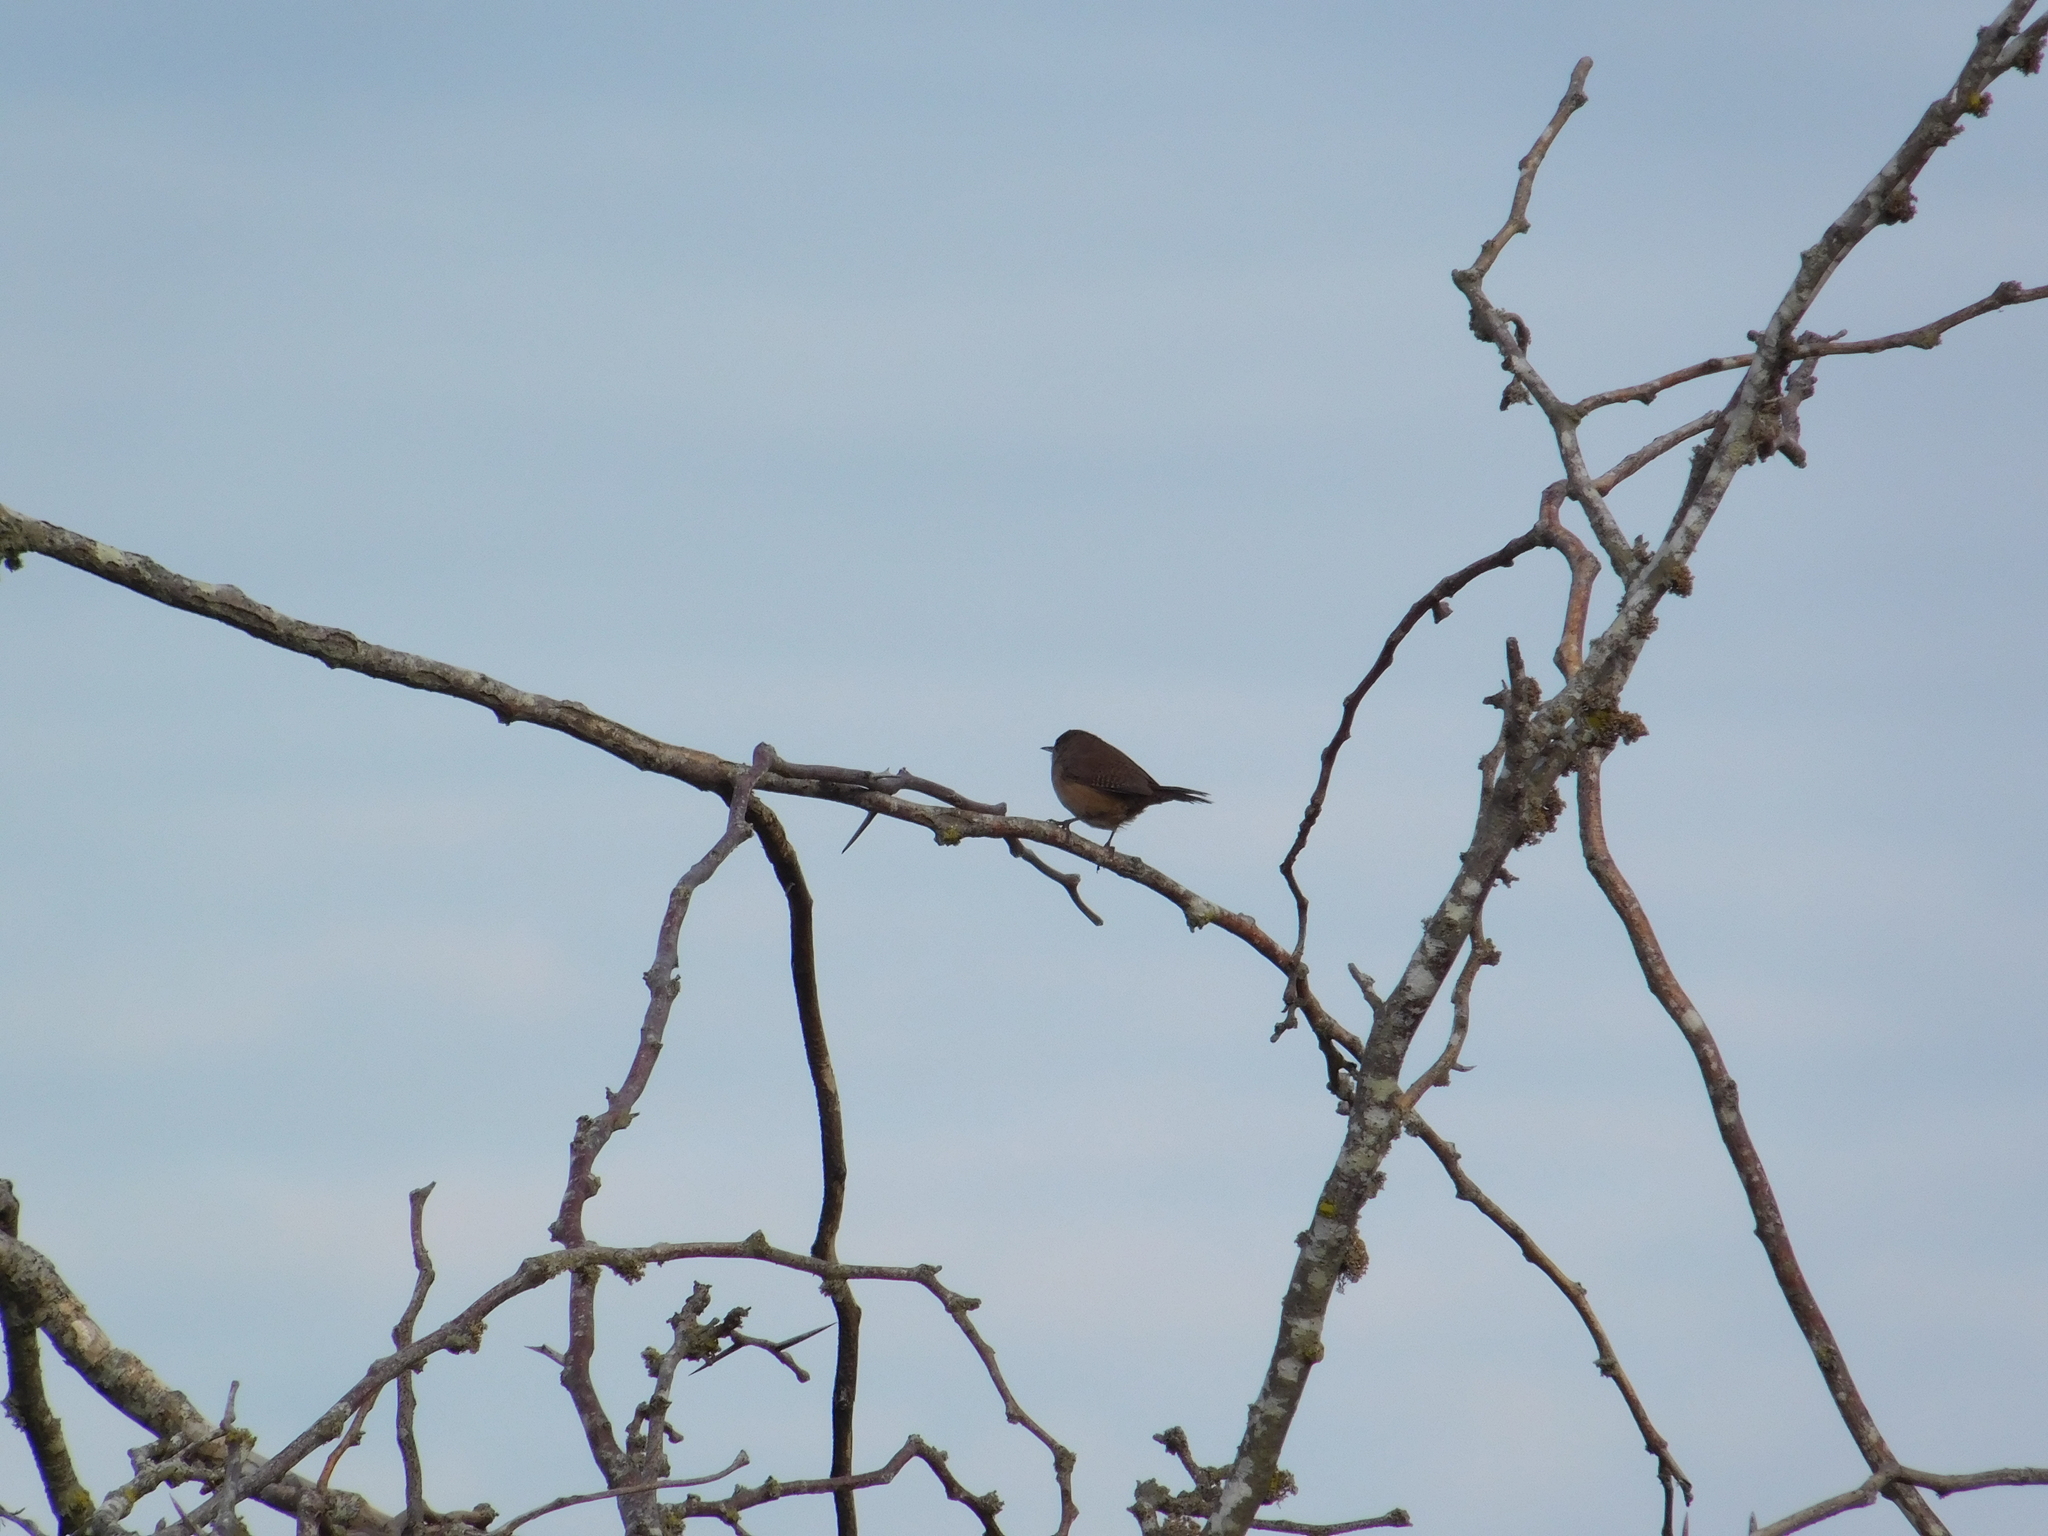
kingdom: Animalia
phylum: Chordata
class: Aves
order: Passeriformes
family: Troglodytidae
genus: Troglodytes
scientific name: Troglodytes aedon
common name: House wren
